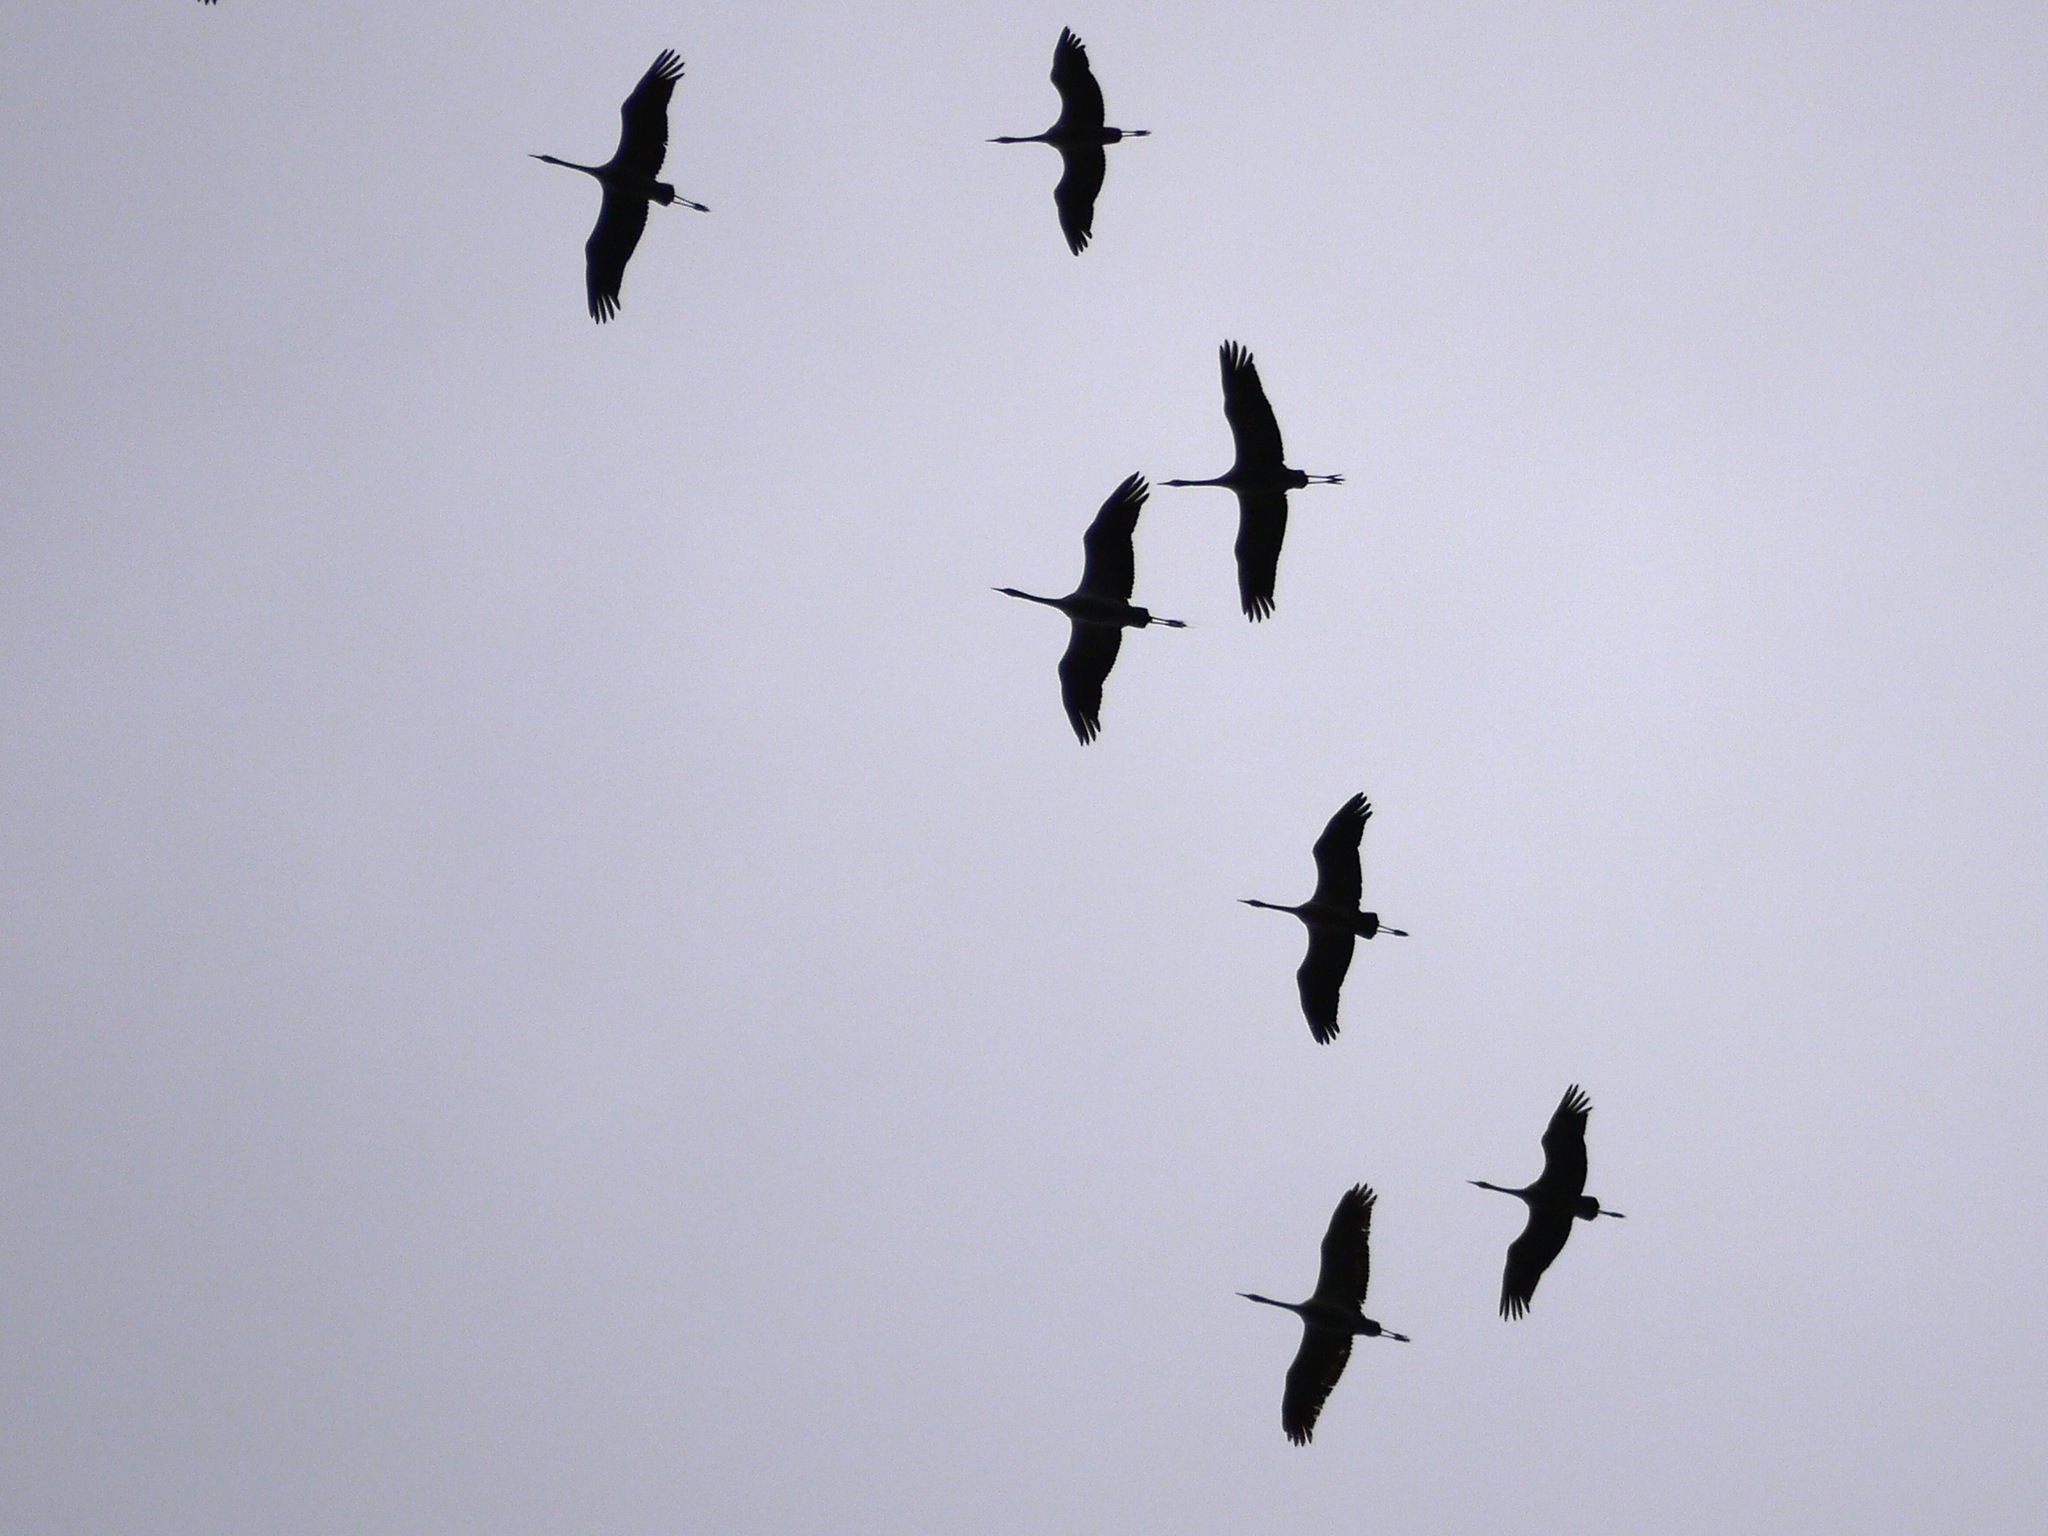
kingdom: Animalia
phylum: Chordata
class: Aves
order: Gruiformes
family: Gruidae
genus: Grus
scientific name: Grus grus
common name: Common crane
